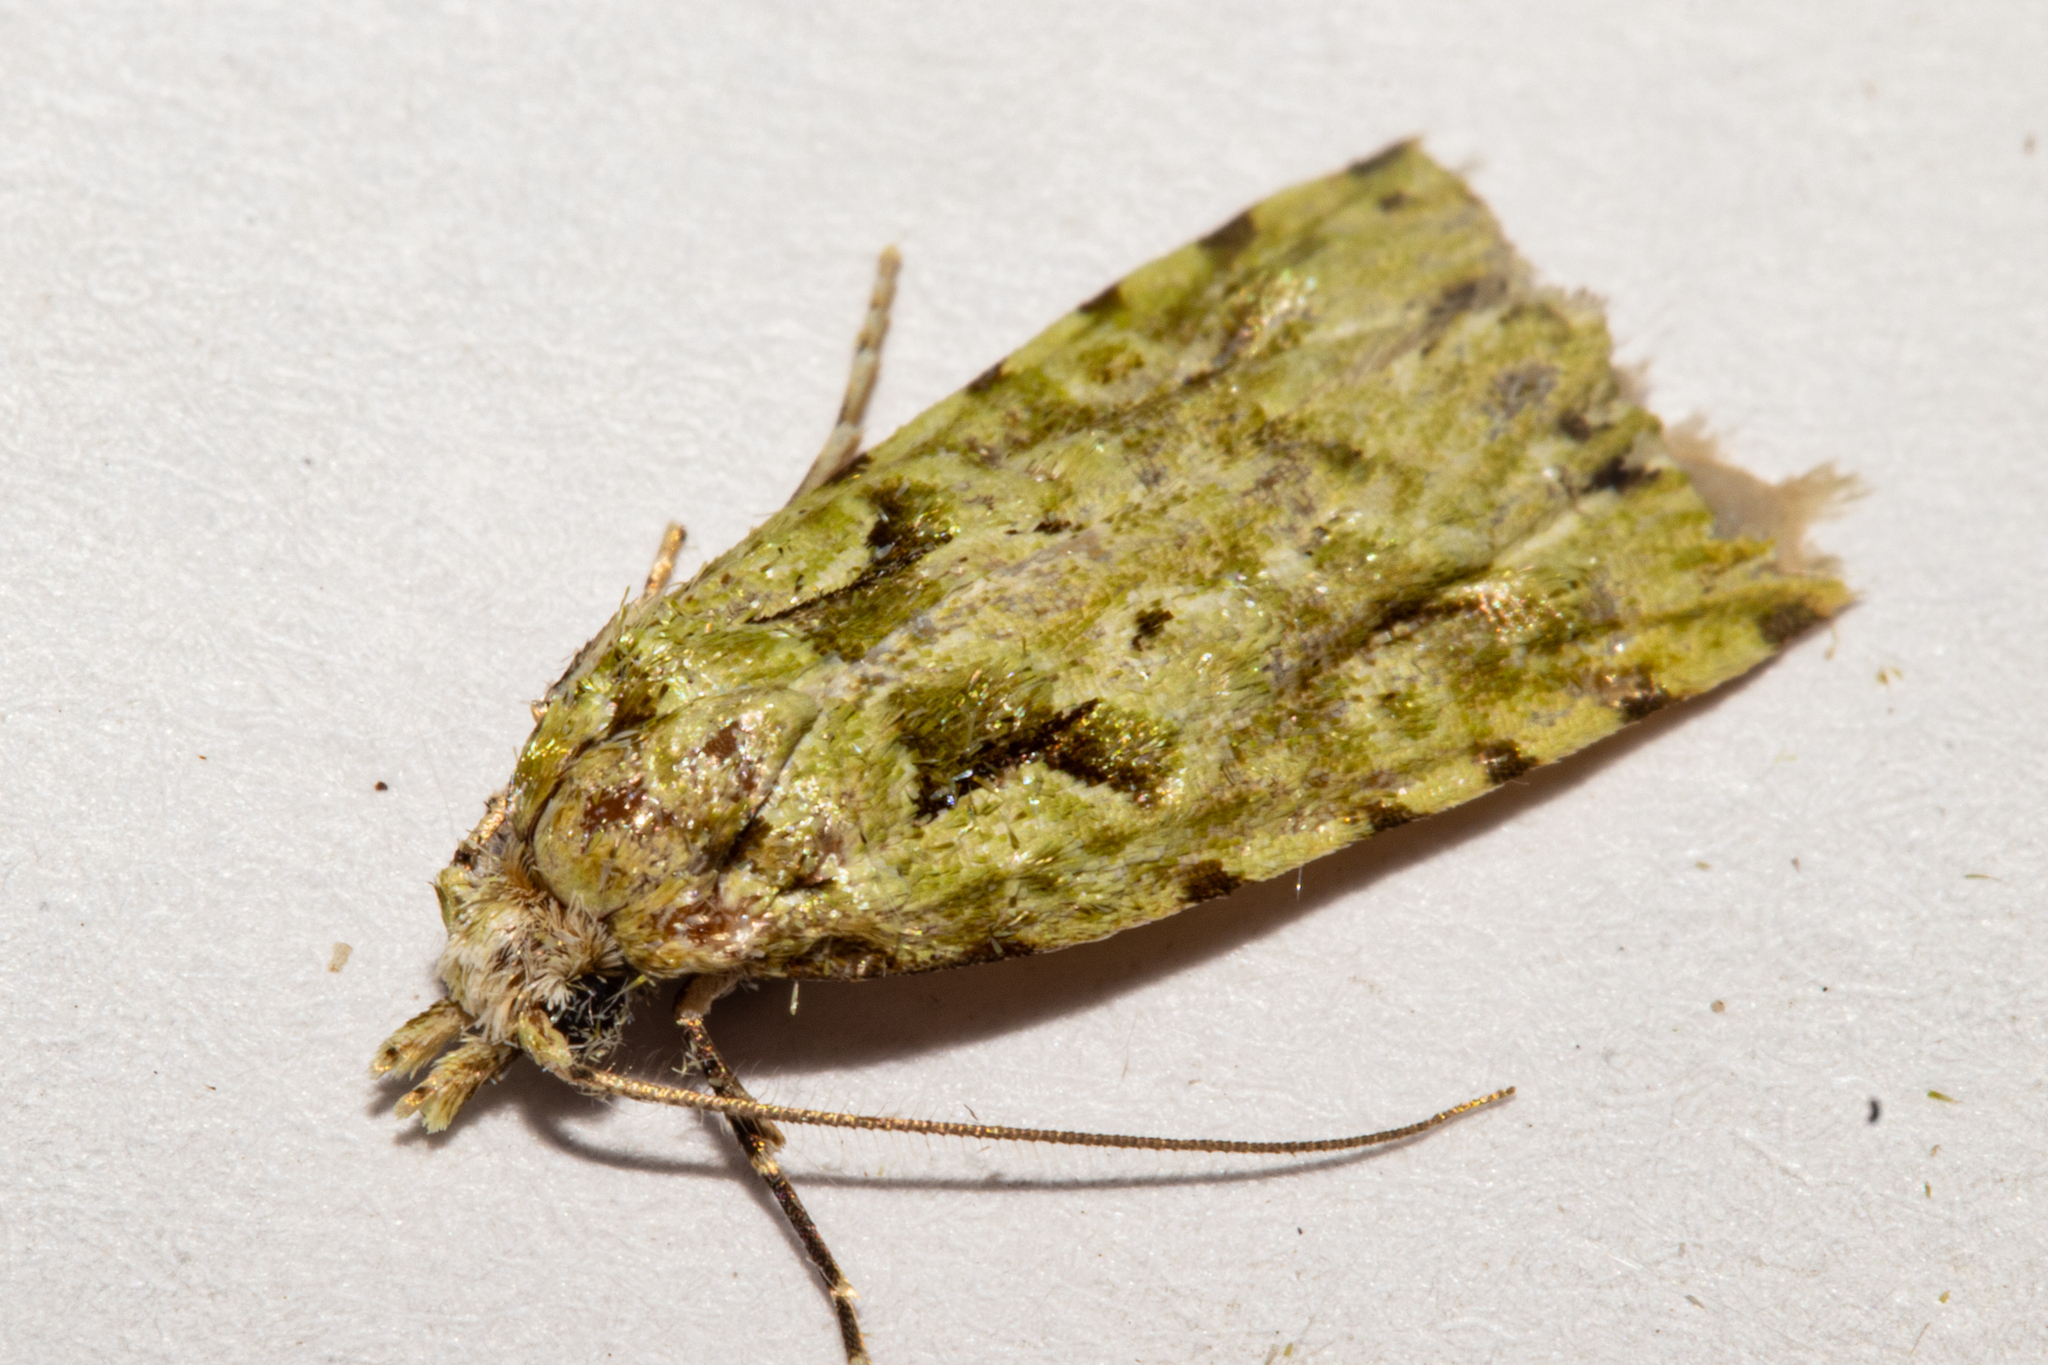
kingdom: Animalia
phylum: Arthropoda
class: Insecta
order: Lepidoptera
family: Carposinidae
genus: Carposina
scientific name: Carposina Heterocrossa eriphylla
